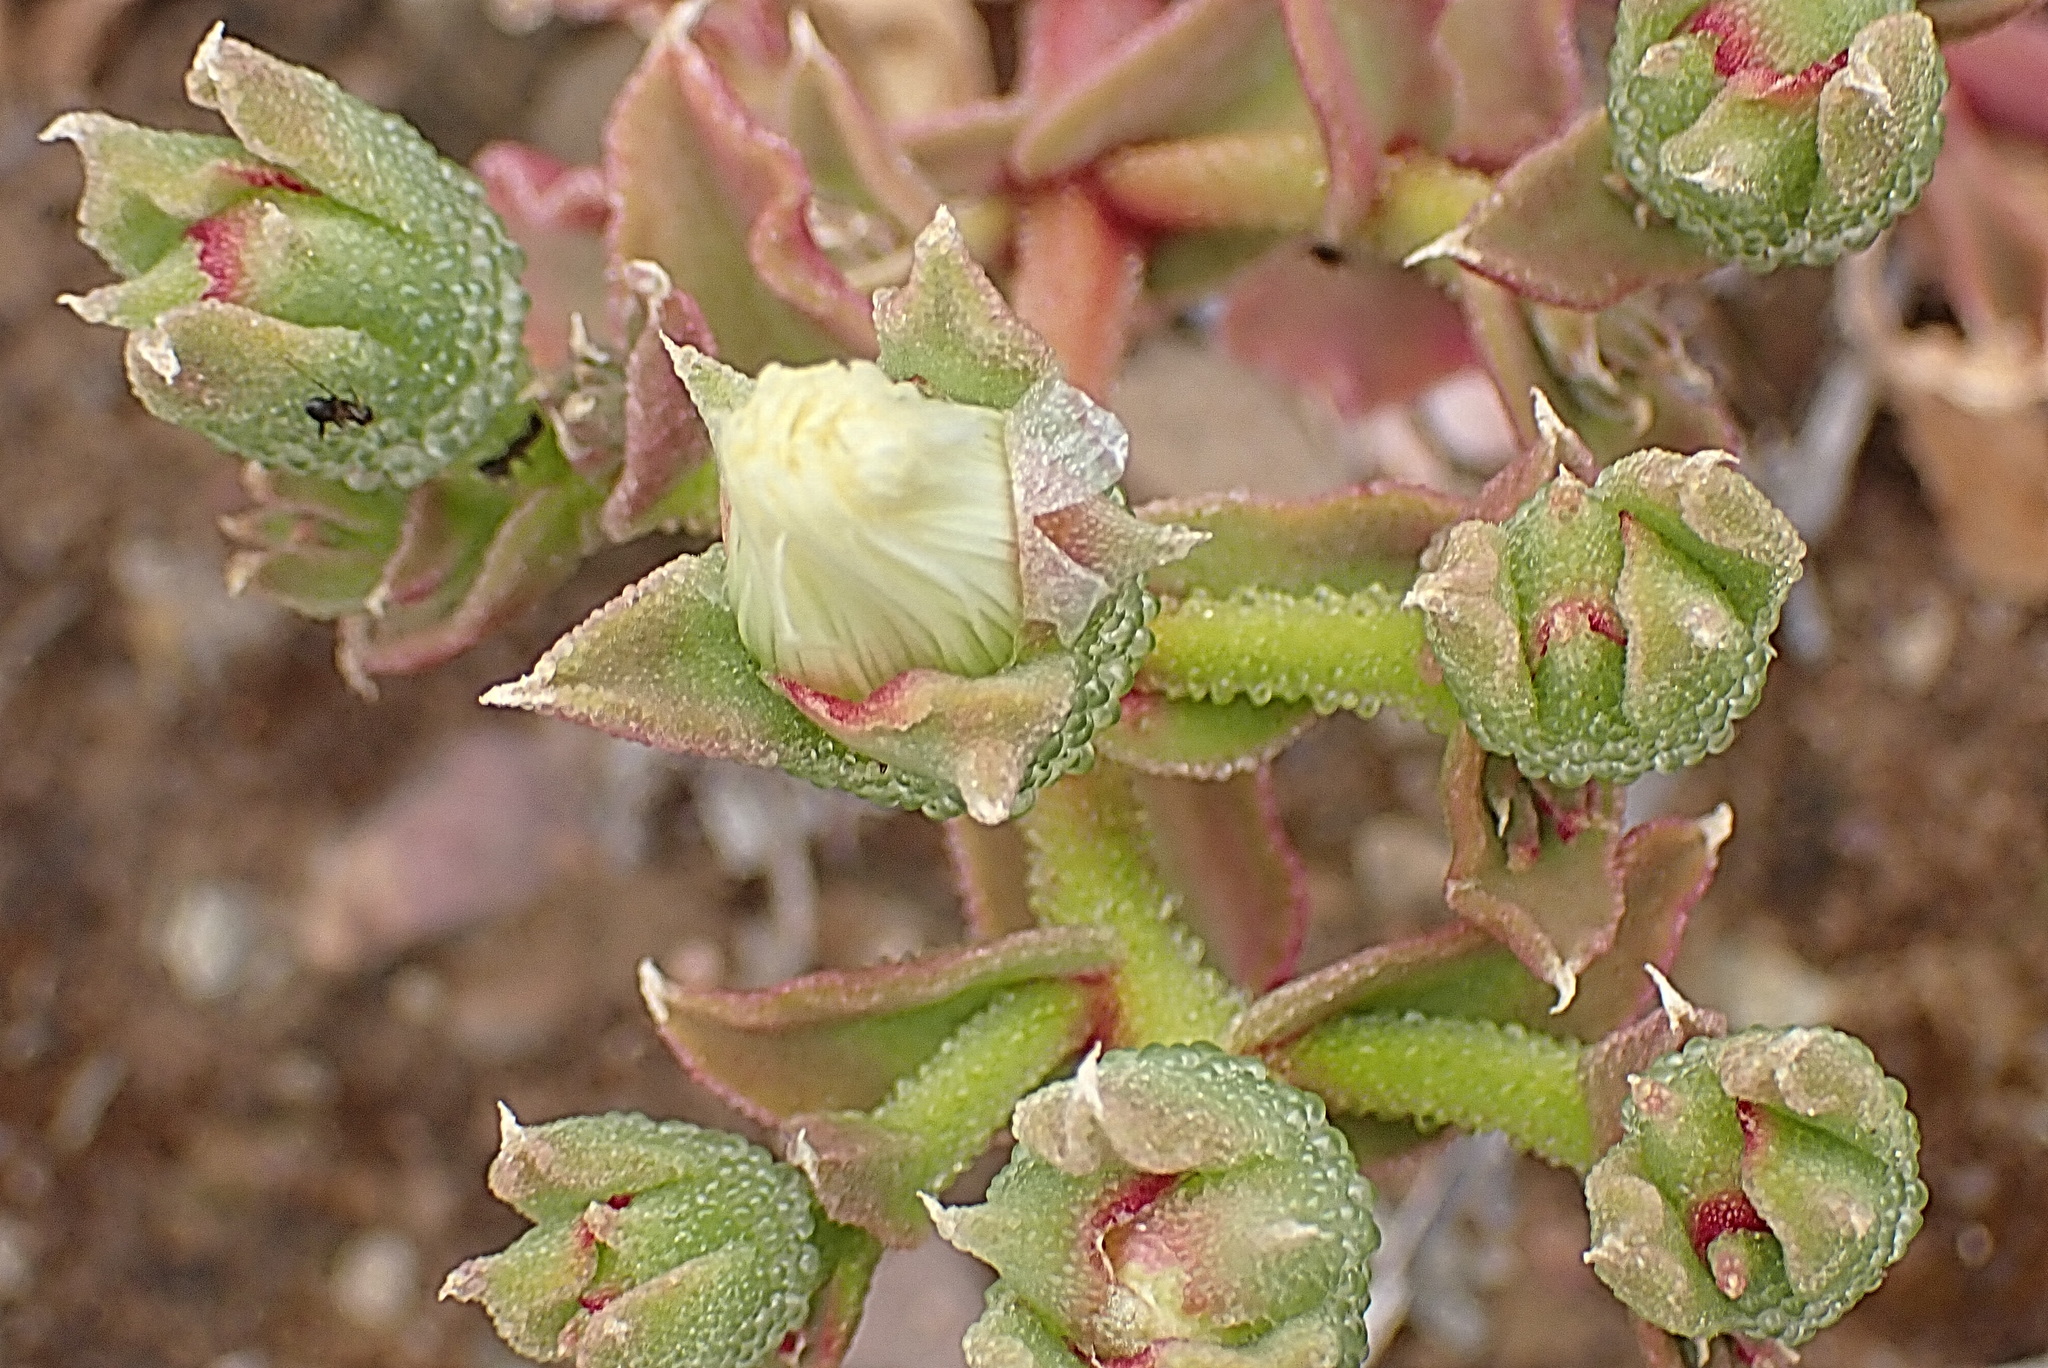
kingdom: Plantae
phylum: Tracheophyta
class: Magnoliopsida
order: Caryophyllales
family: Aizoaceae
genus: Mesembryanthemum
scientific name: Mesembryanthemum crystallinum
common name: Common iceplant
